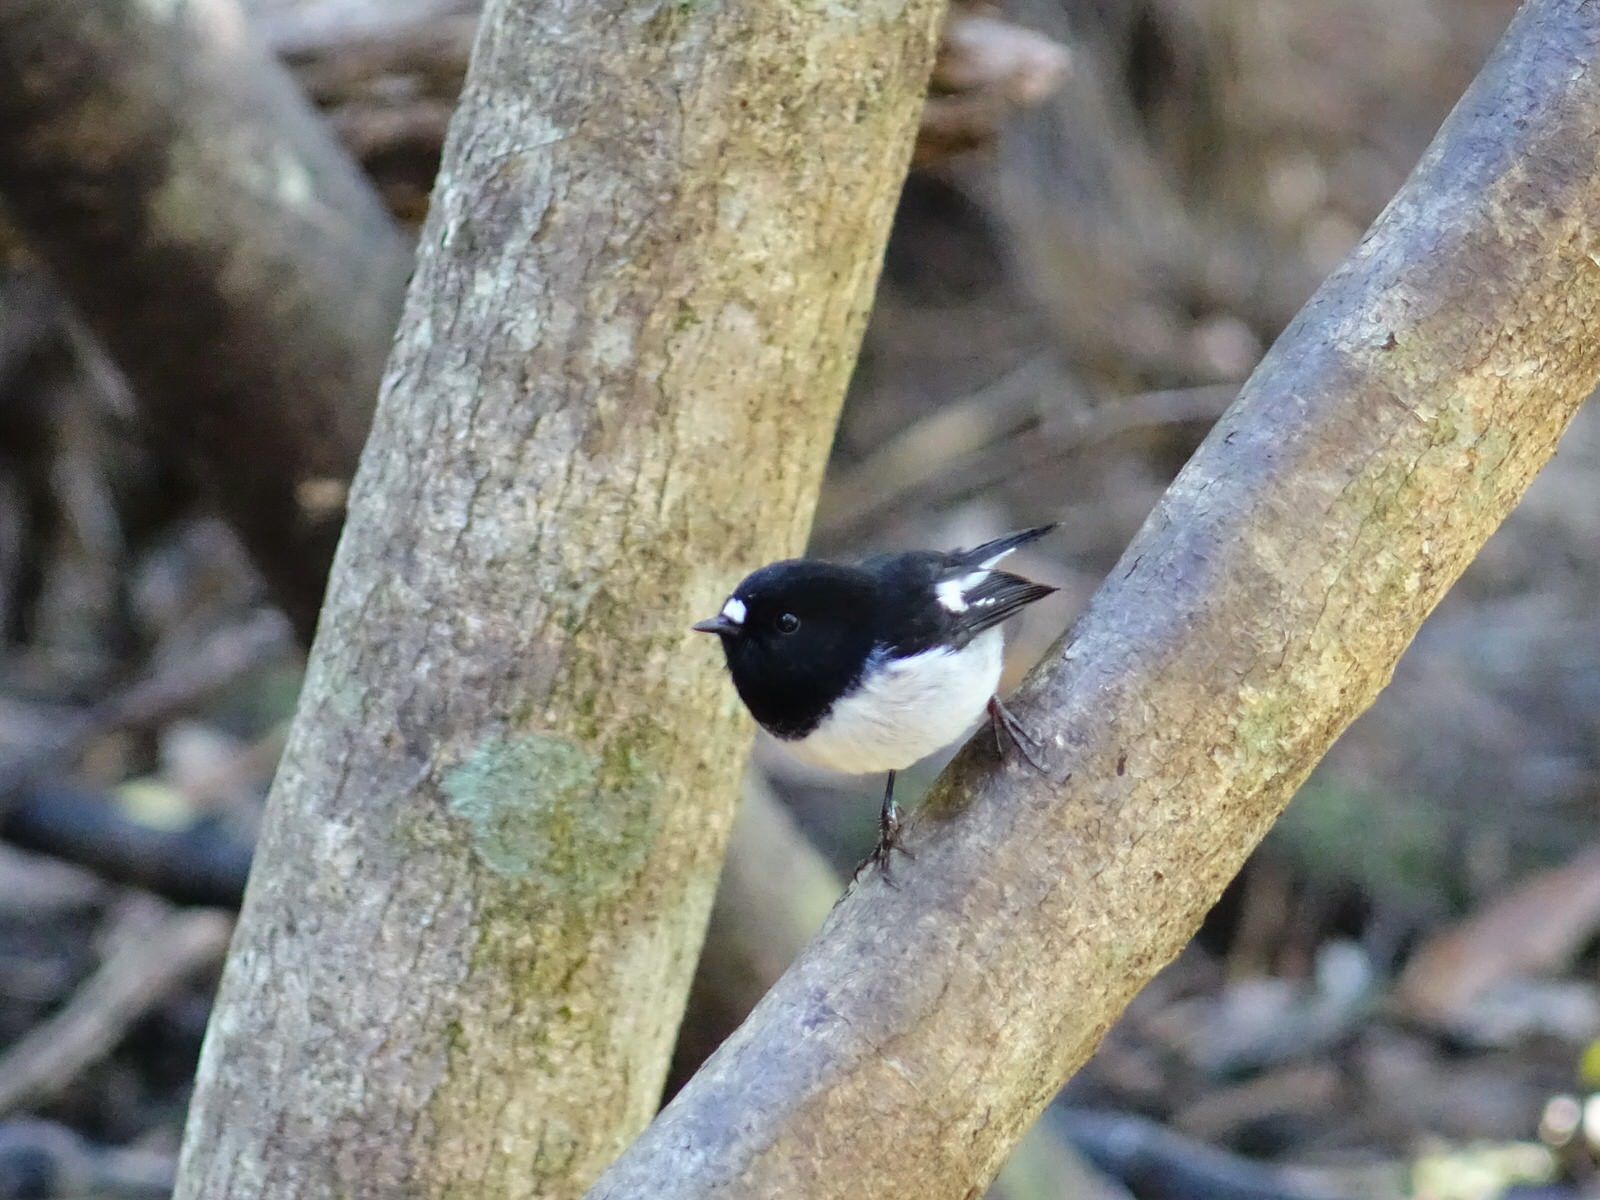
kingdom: Animalia
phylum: Chordata
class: Aves
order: Passeriformes
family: Petroicidae
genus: Petroica
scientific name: Petroica macrocephala
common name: Tomtit
